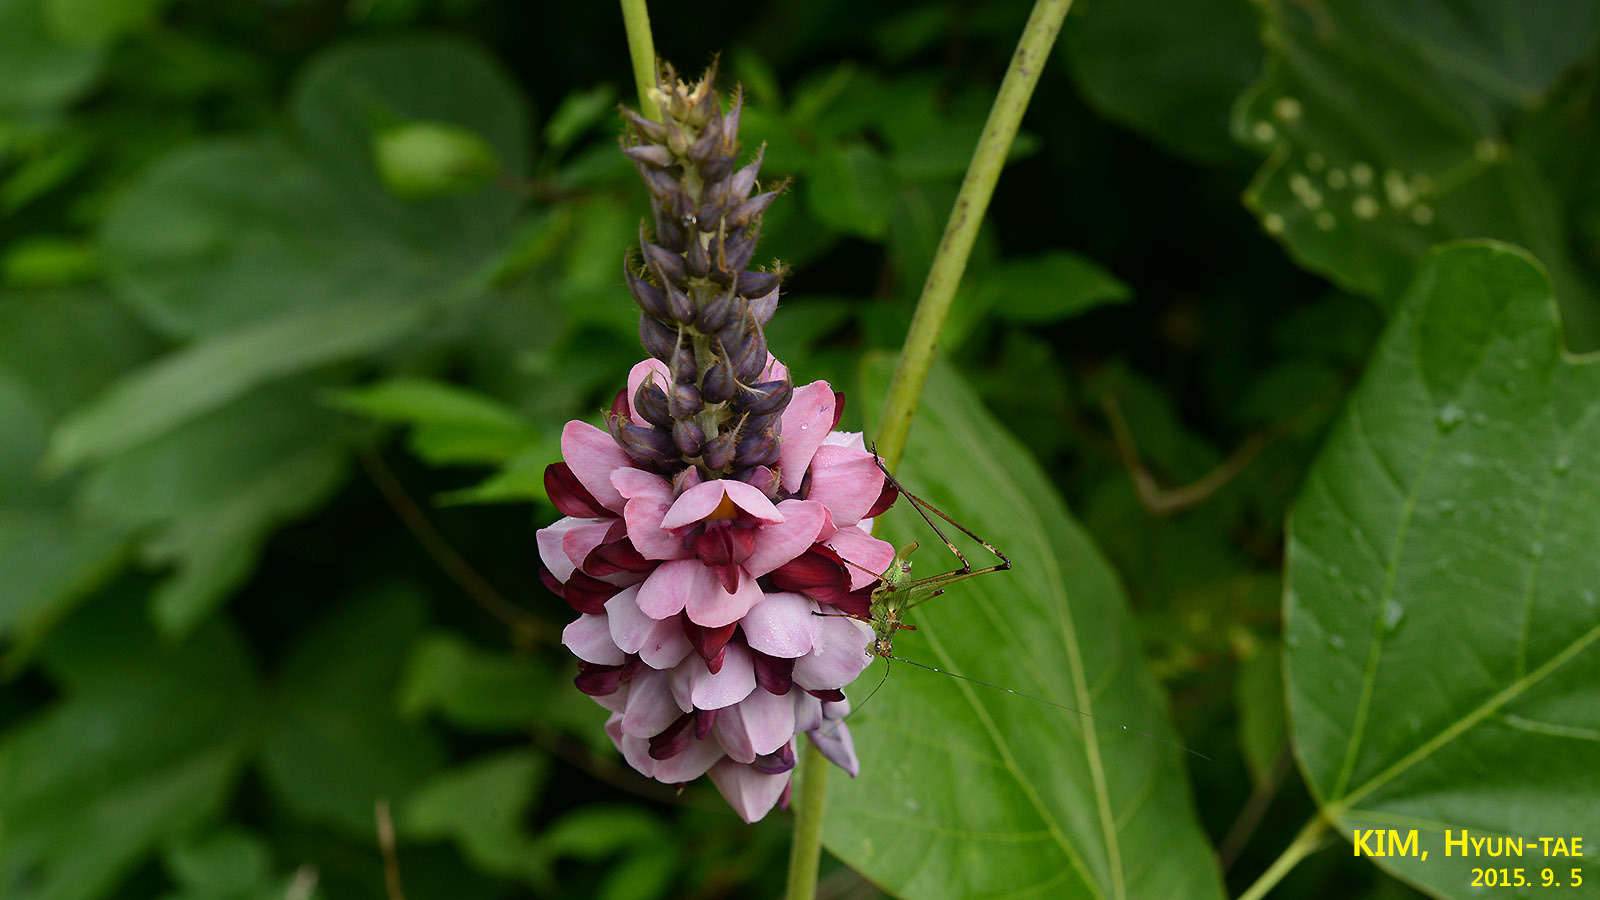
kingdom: Plantae
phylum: Tracheophyta
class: Magnoliopsida
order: Fabales
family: Fabaceae
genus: Pueraria
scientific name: Pueraria montana
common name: Kudzu
